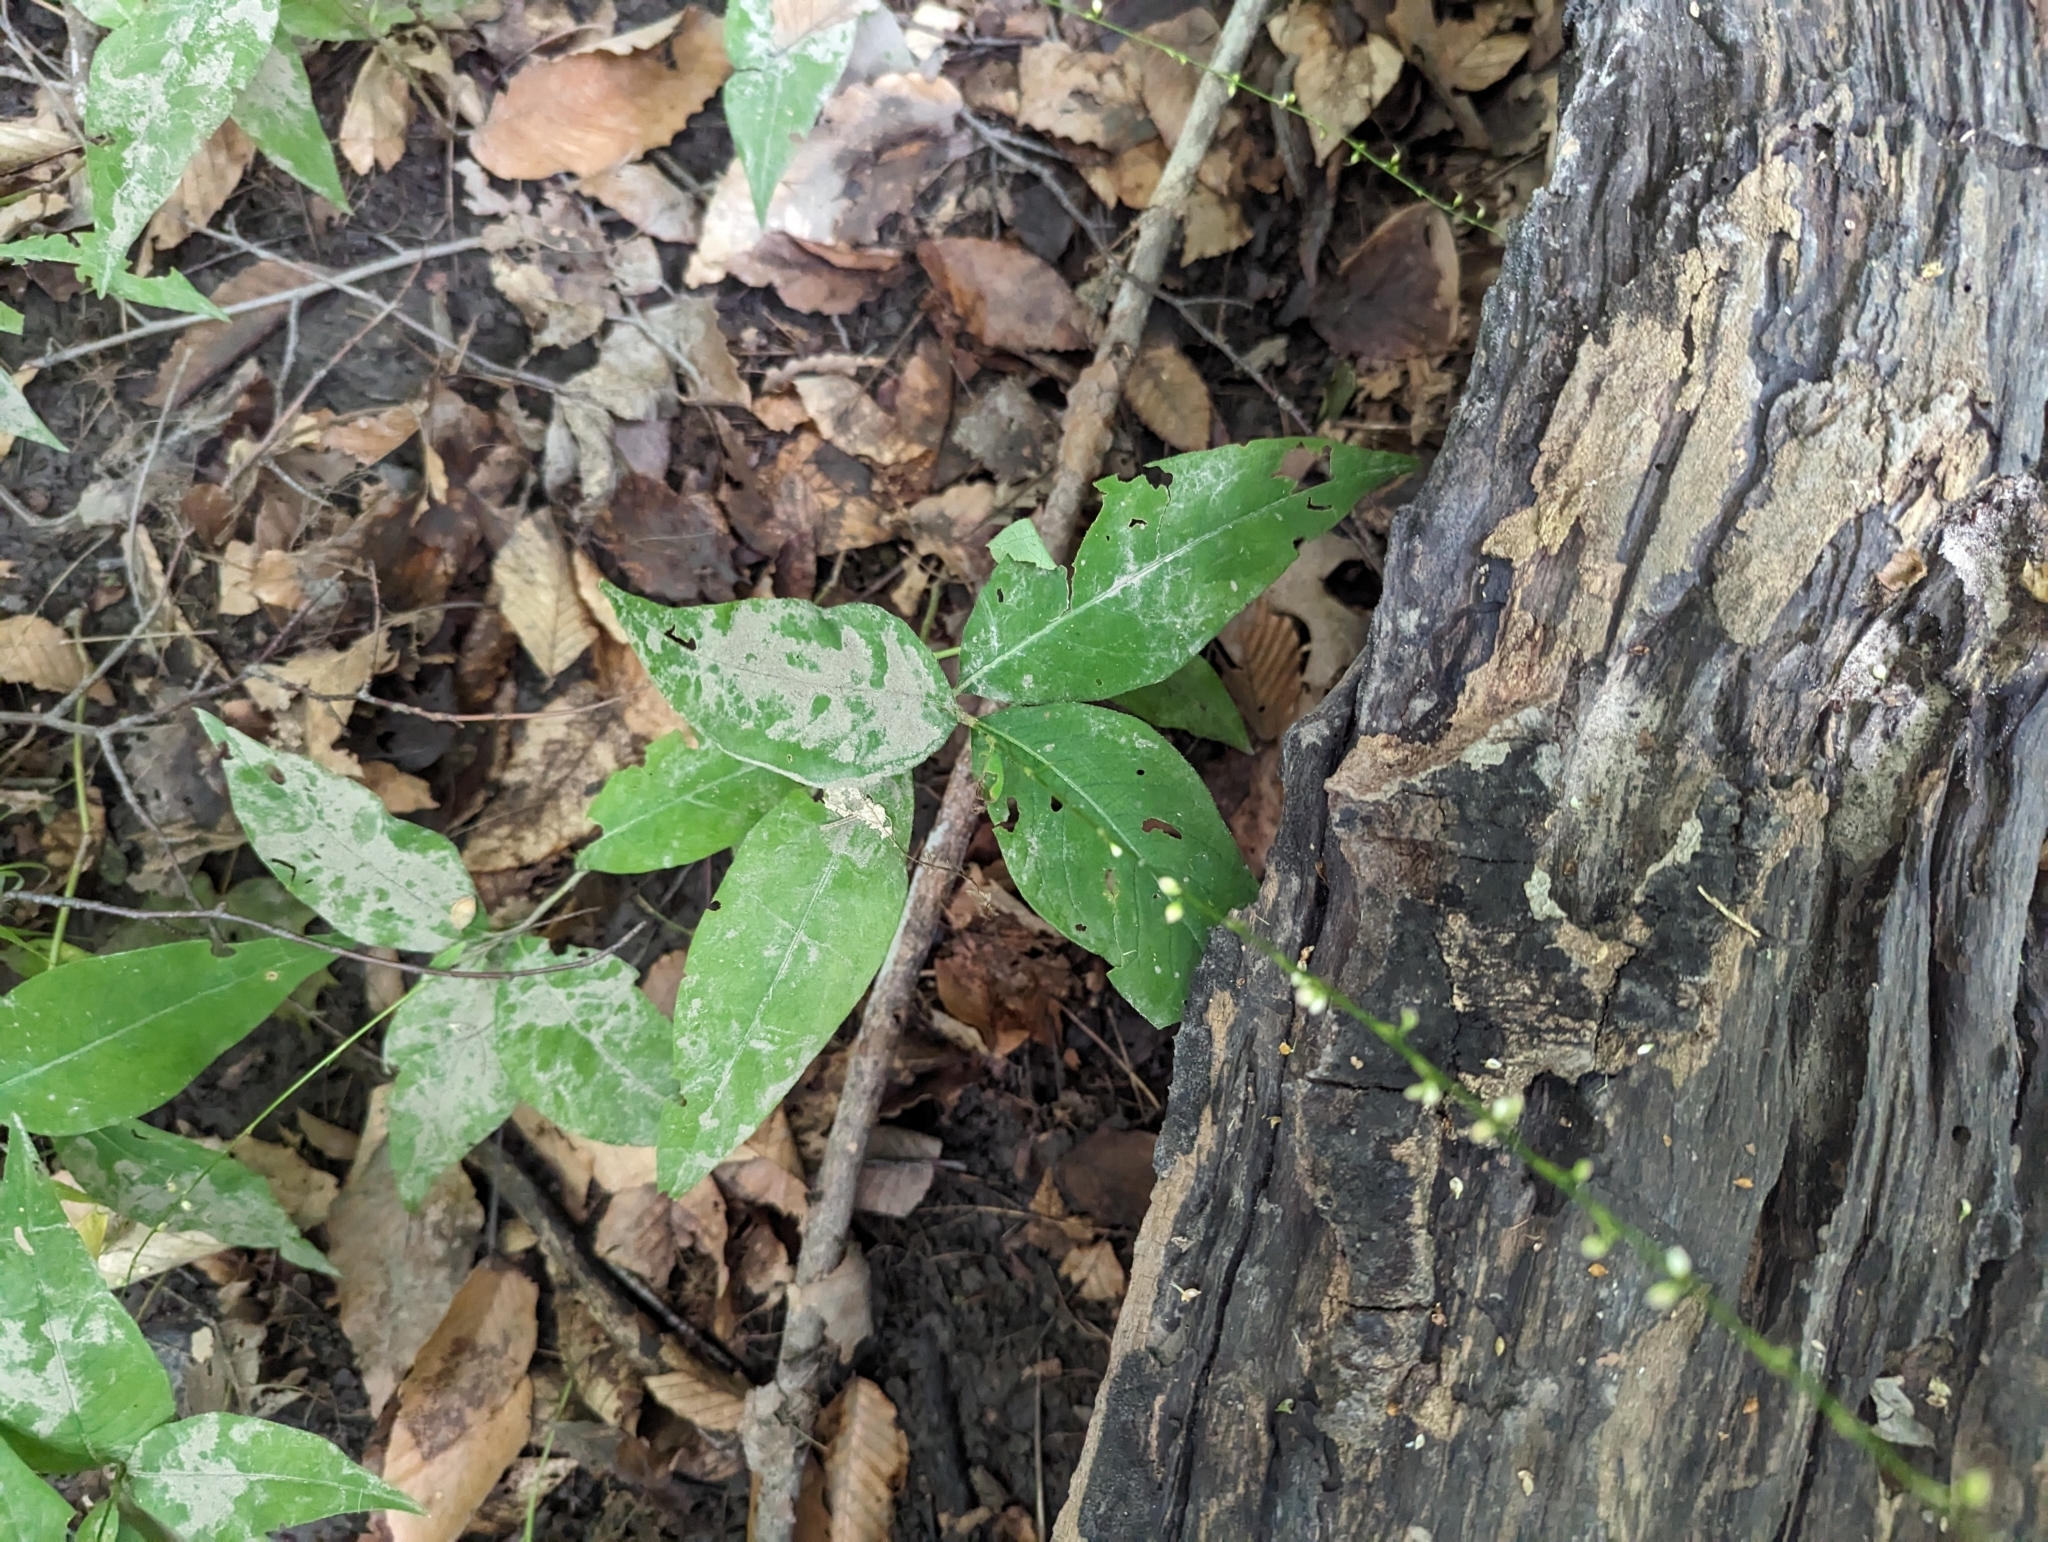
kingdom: Plantae
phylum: Tracheophyta
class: Magnoliopsida
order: Caryophyllales
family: Polygonaceae
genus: Persicaria
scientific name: Persicaria virginiana
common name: Jumpseed
